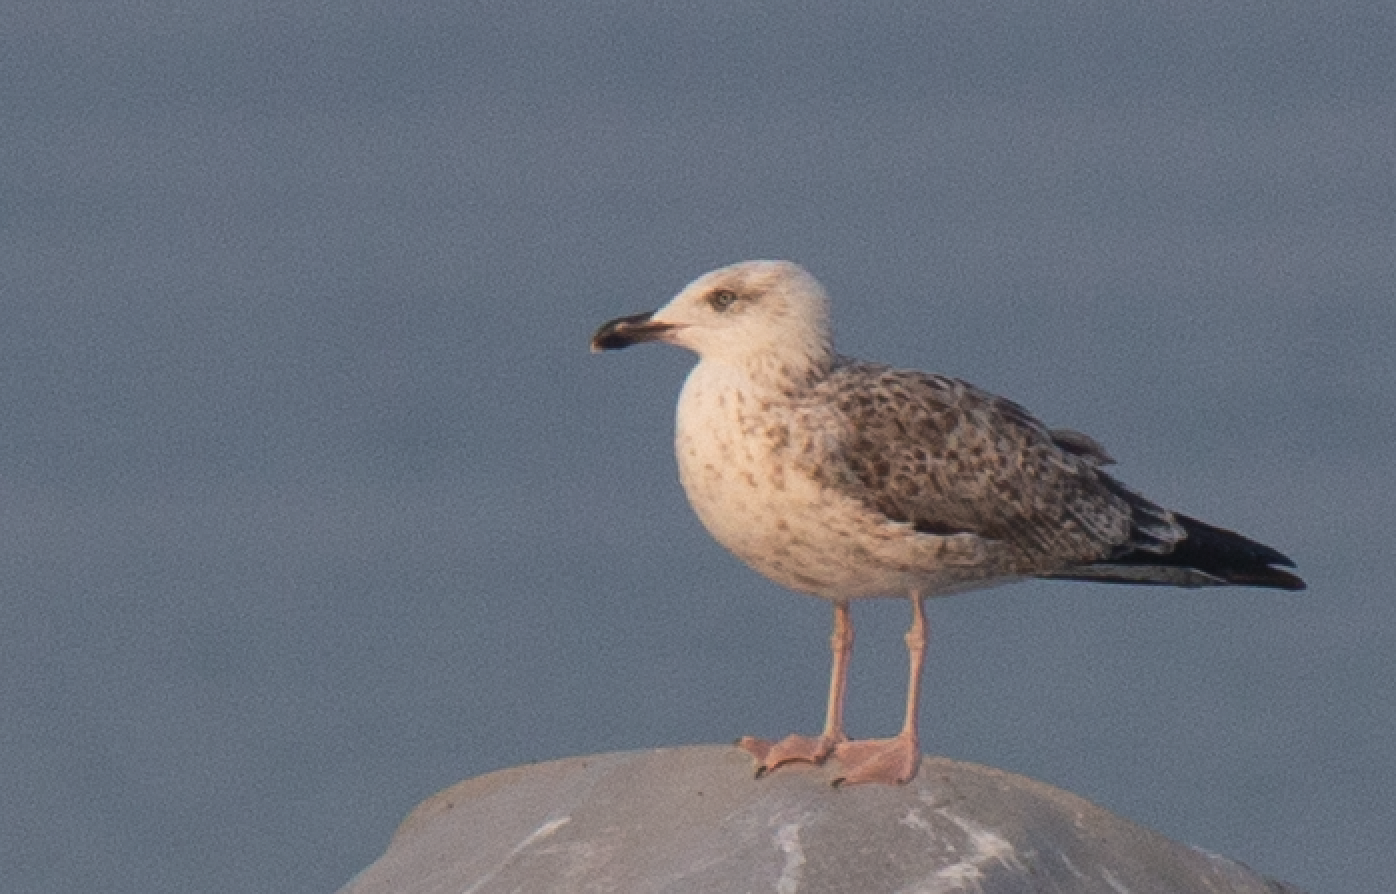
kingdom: Animalia
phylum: Chordata
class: Aves
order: Charadriiformes
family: Laridae
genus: Larus
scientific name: Larus michahellis
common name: Yellow-legged gull
